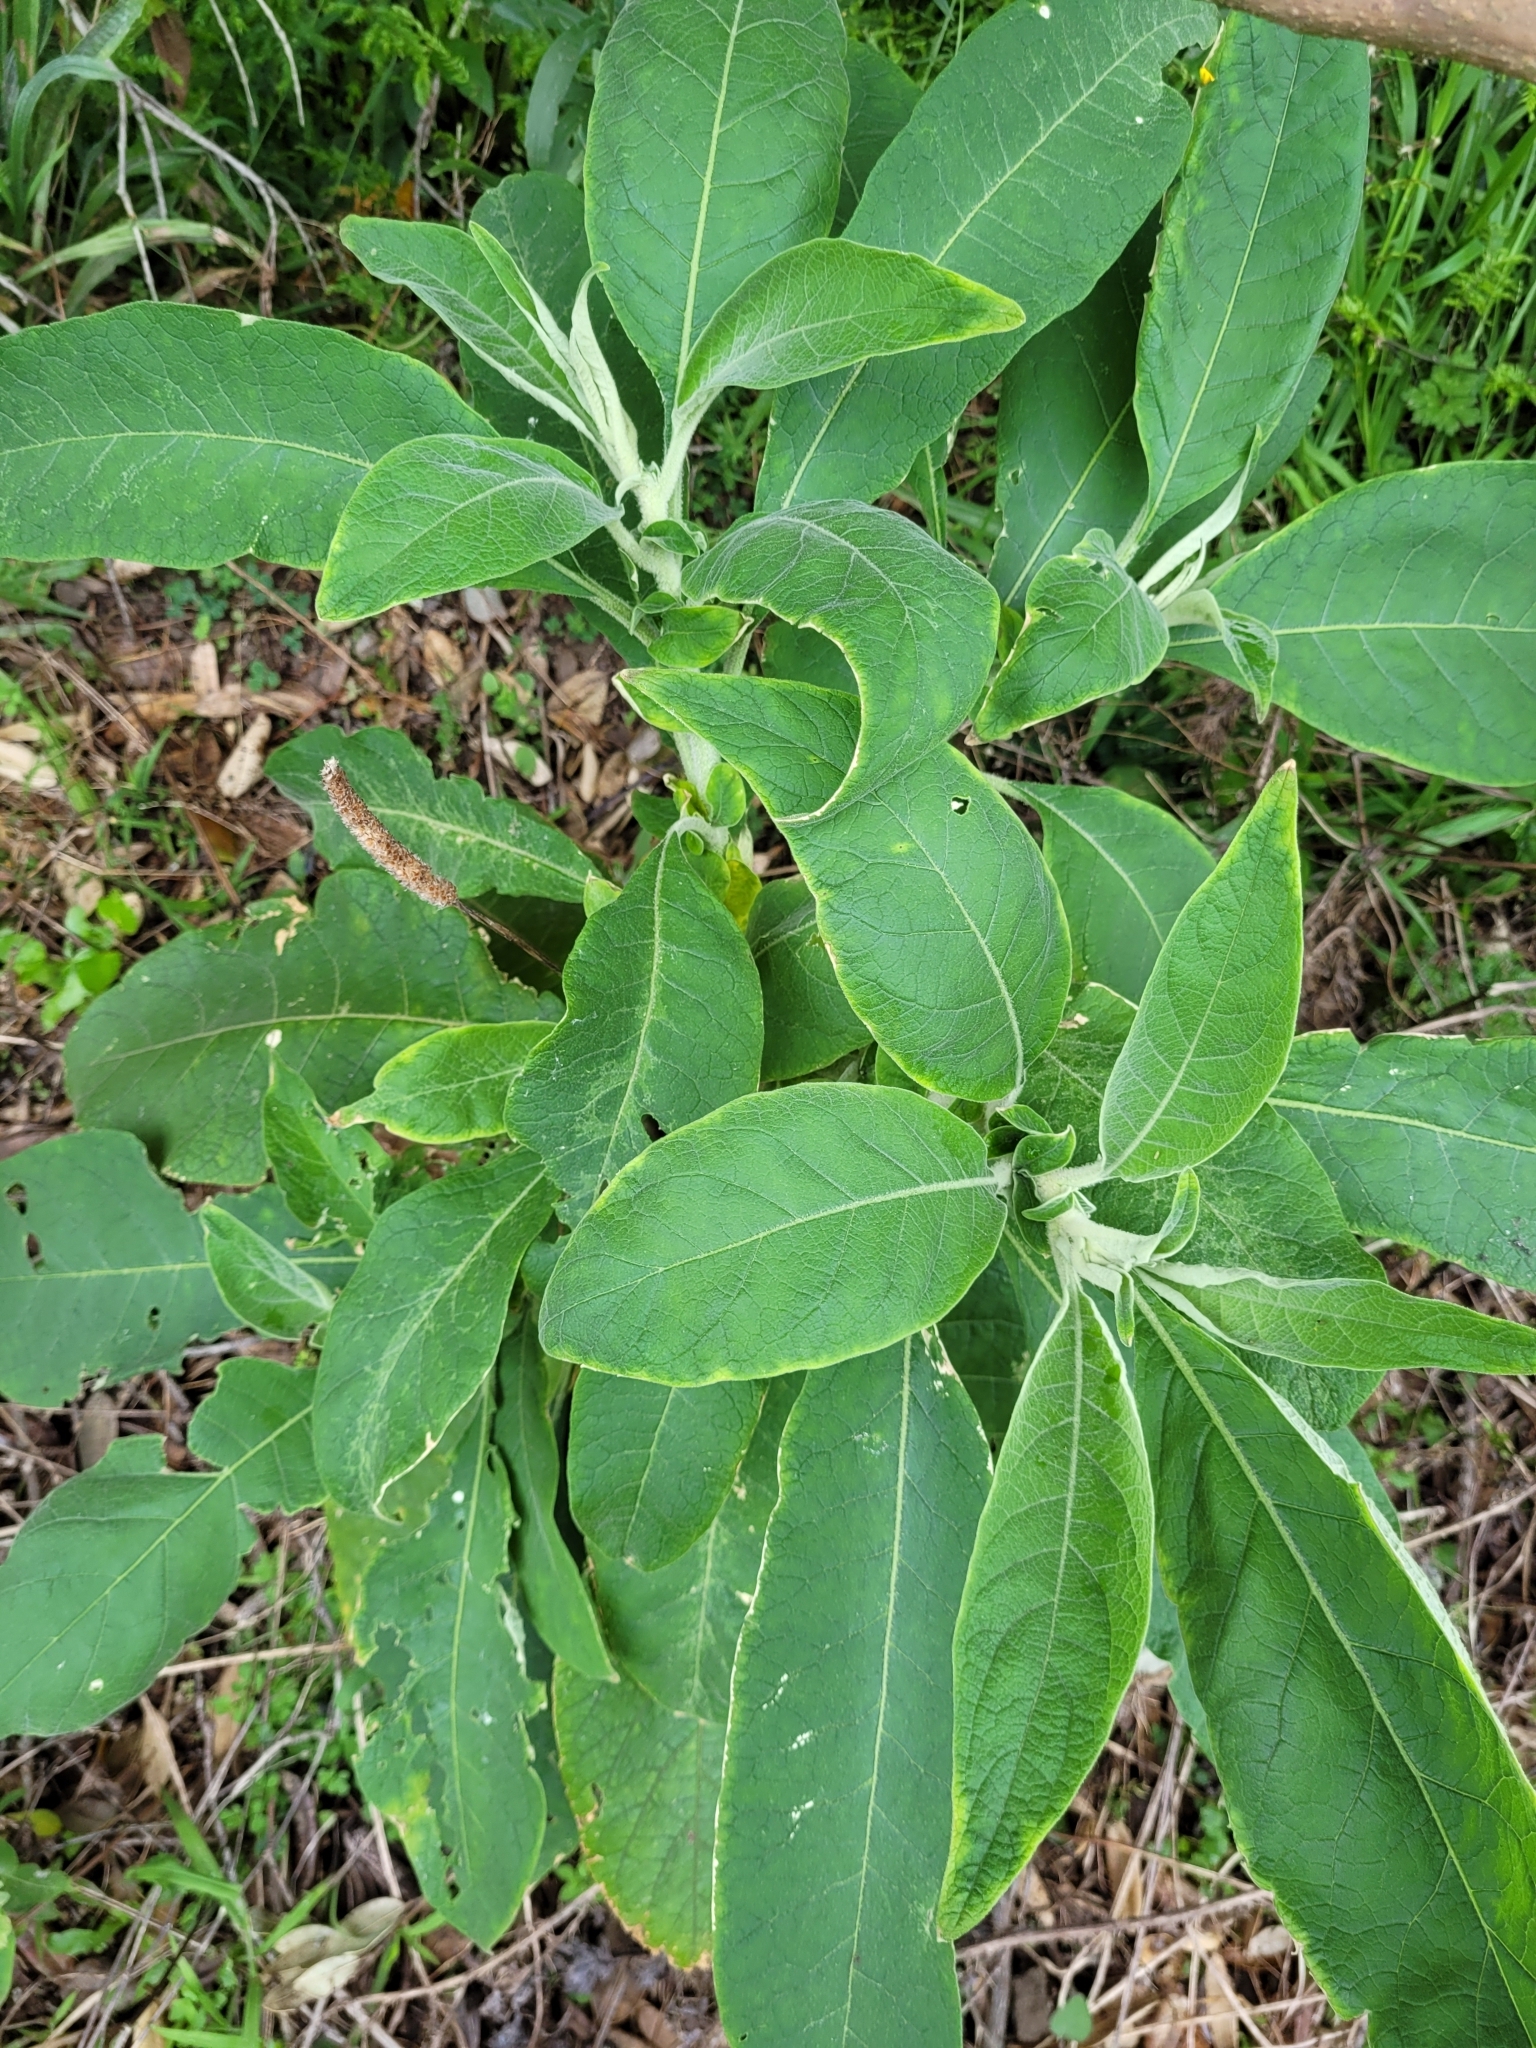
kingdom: Plantae
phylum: Tracheophyta
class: Magnoliopsida
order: Solanales
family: Solanaceae
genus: Solanum
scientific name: Solanum mauritianum
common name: Earleaf nightshade
